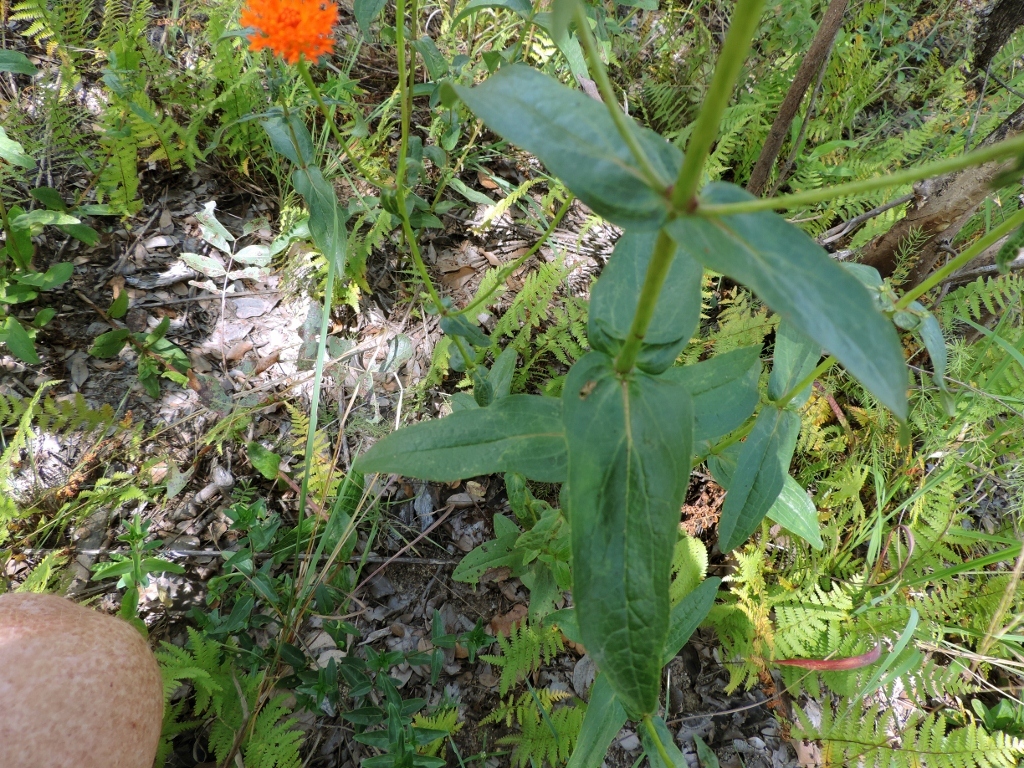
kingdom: Plantae
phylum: Tracheophyta
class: Magnoliopsida
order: Asterales
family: Asteraceae
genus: Hypericophyllum
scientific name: Hypericophyllum compositarum
